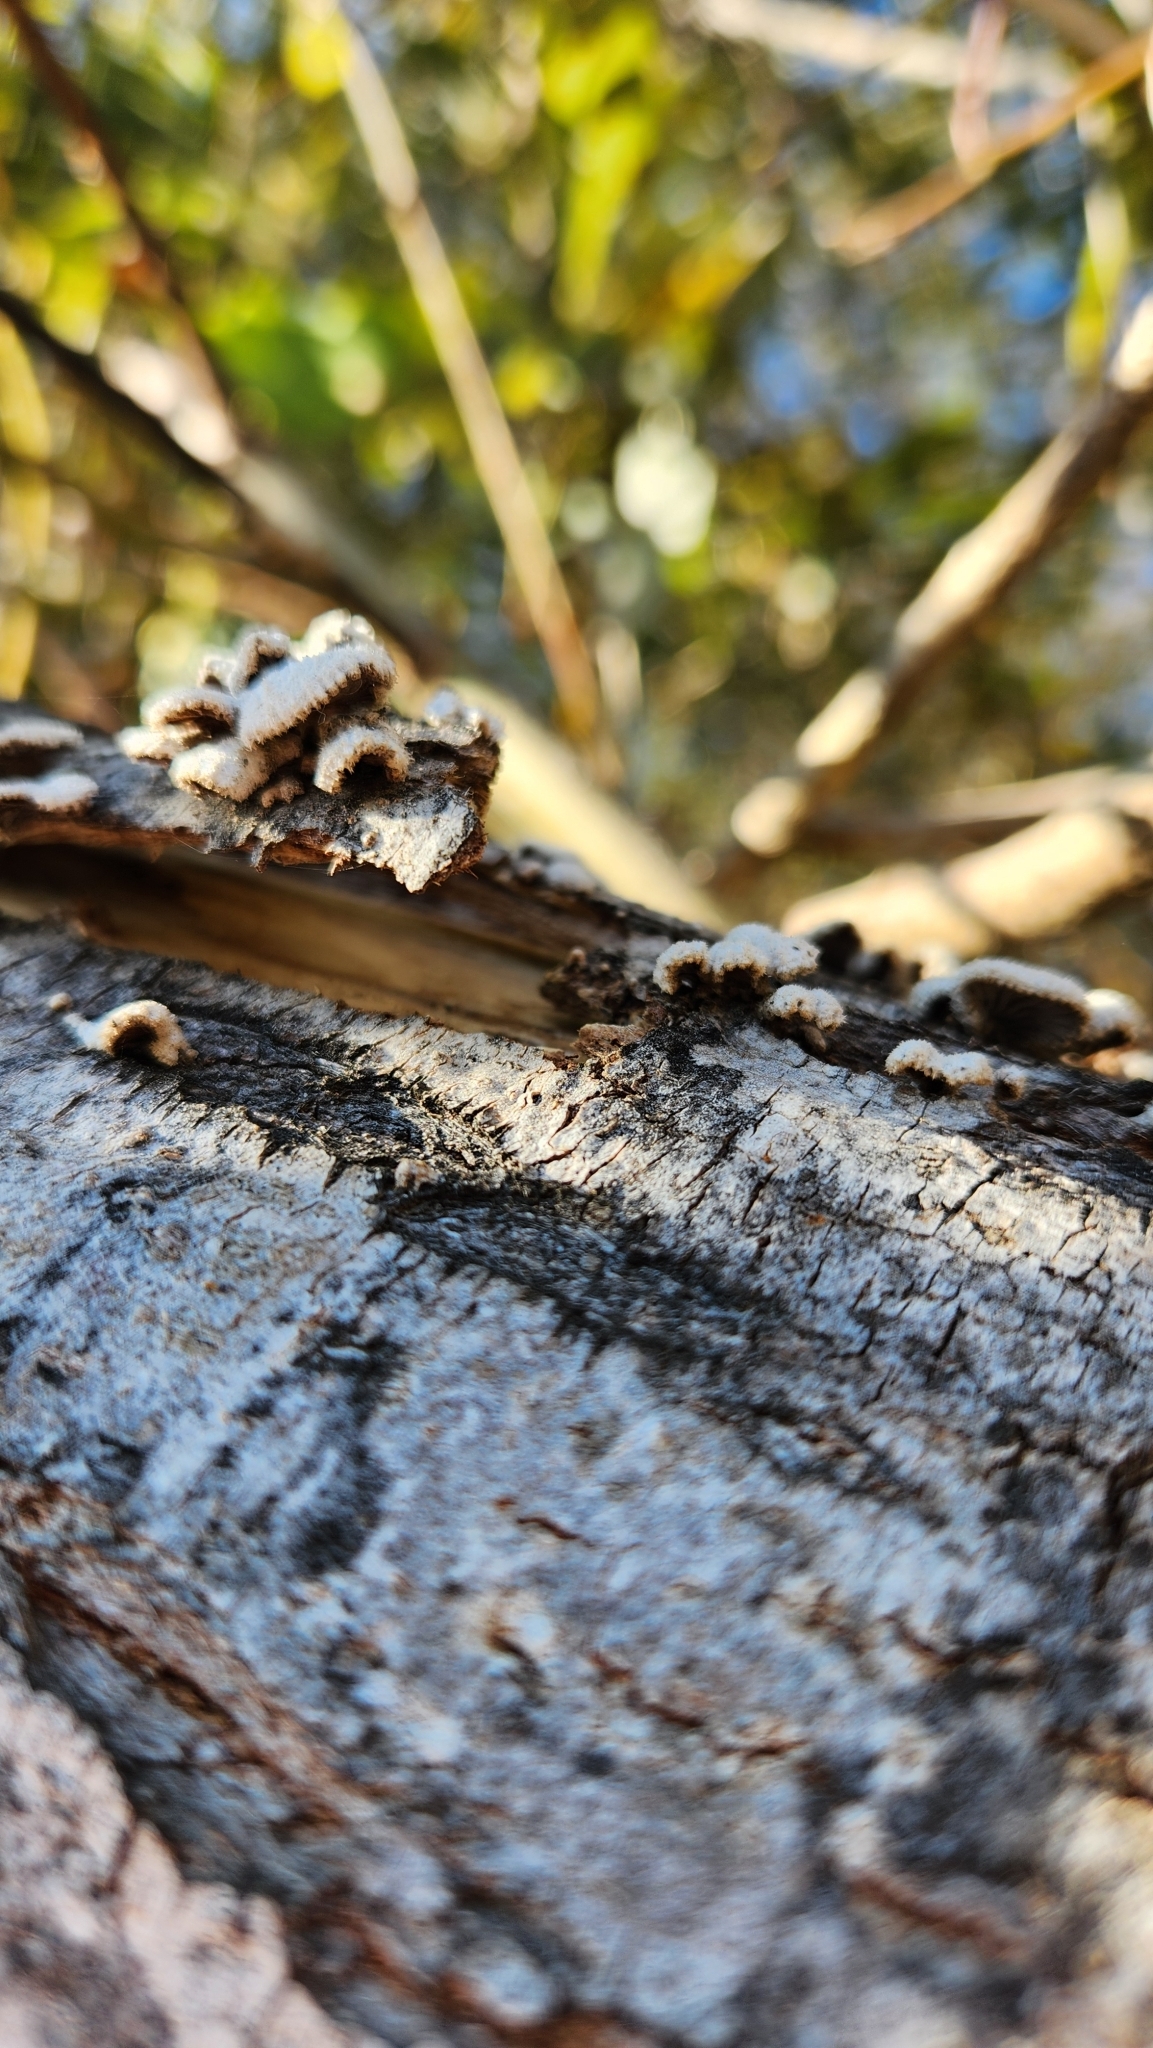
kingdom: Fungi
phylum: Basidiomycota
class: Agaricomycetes
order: Agaricales
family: Schizophyllaceae
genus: Schizophyllum
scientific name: Schizophyllum commune
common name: Common porecrust
